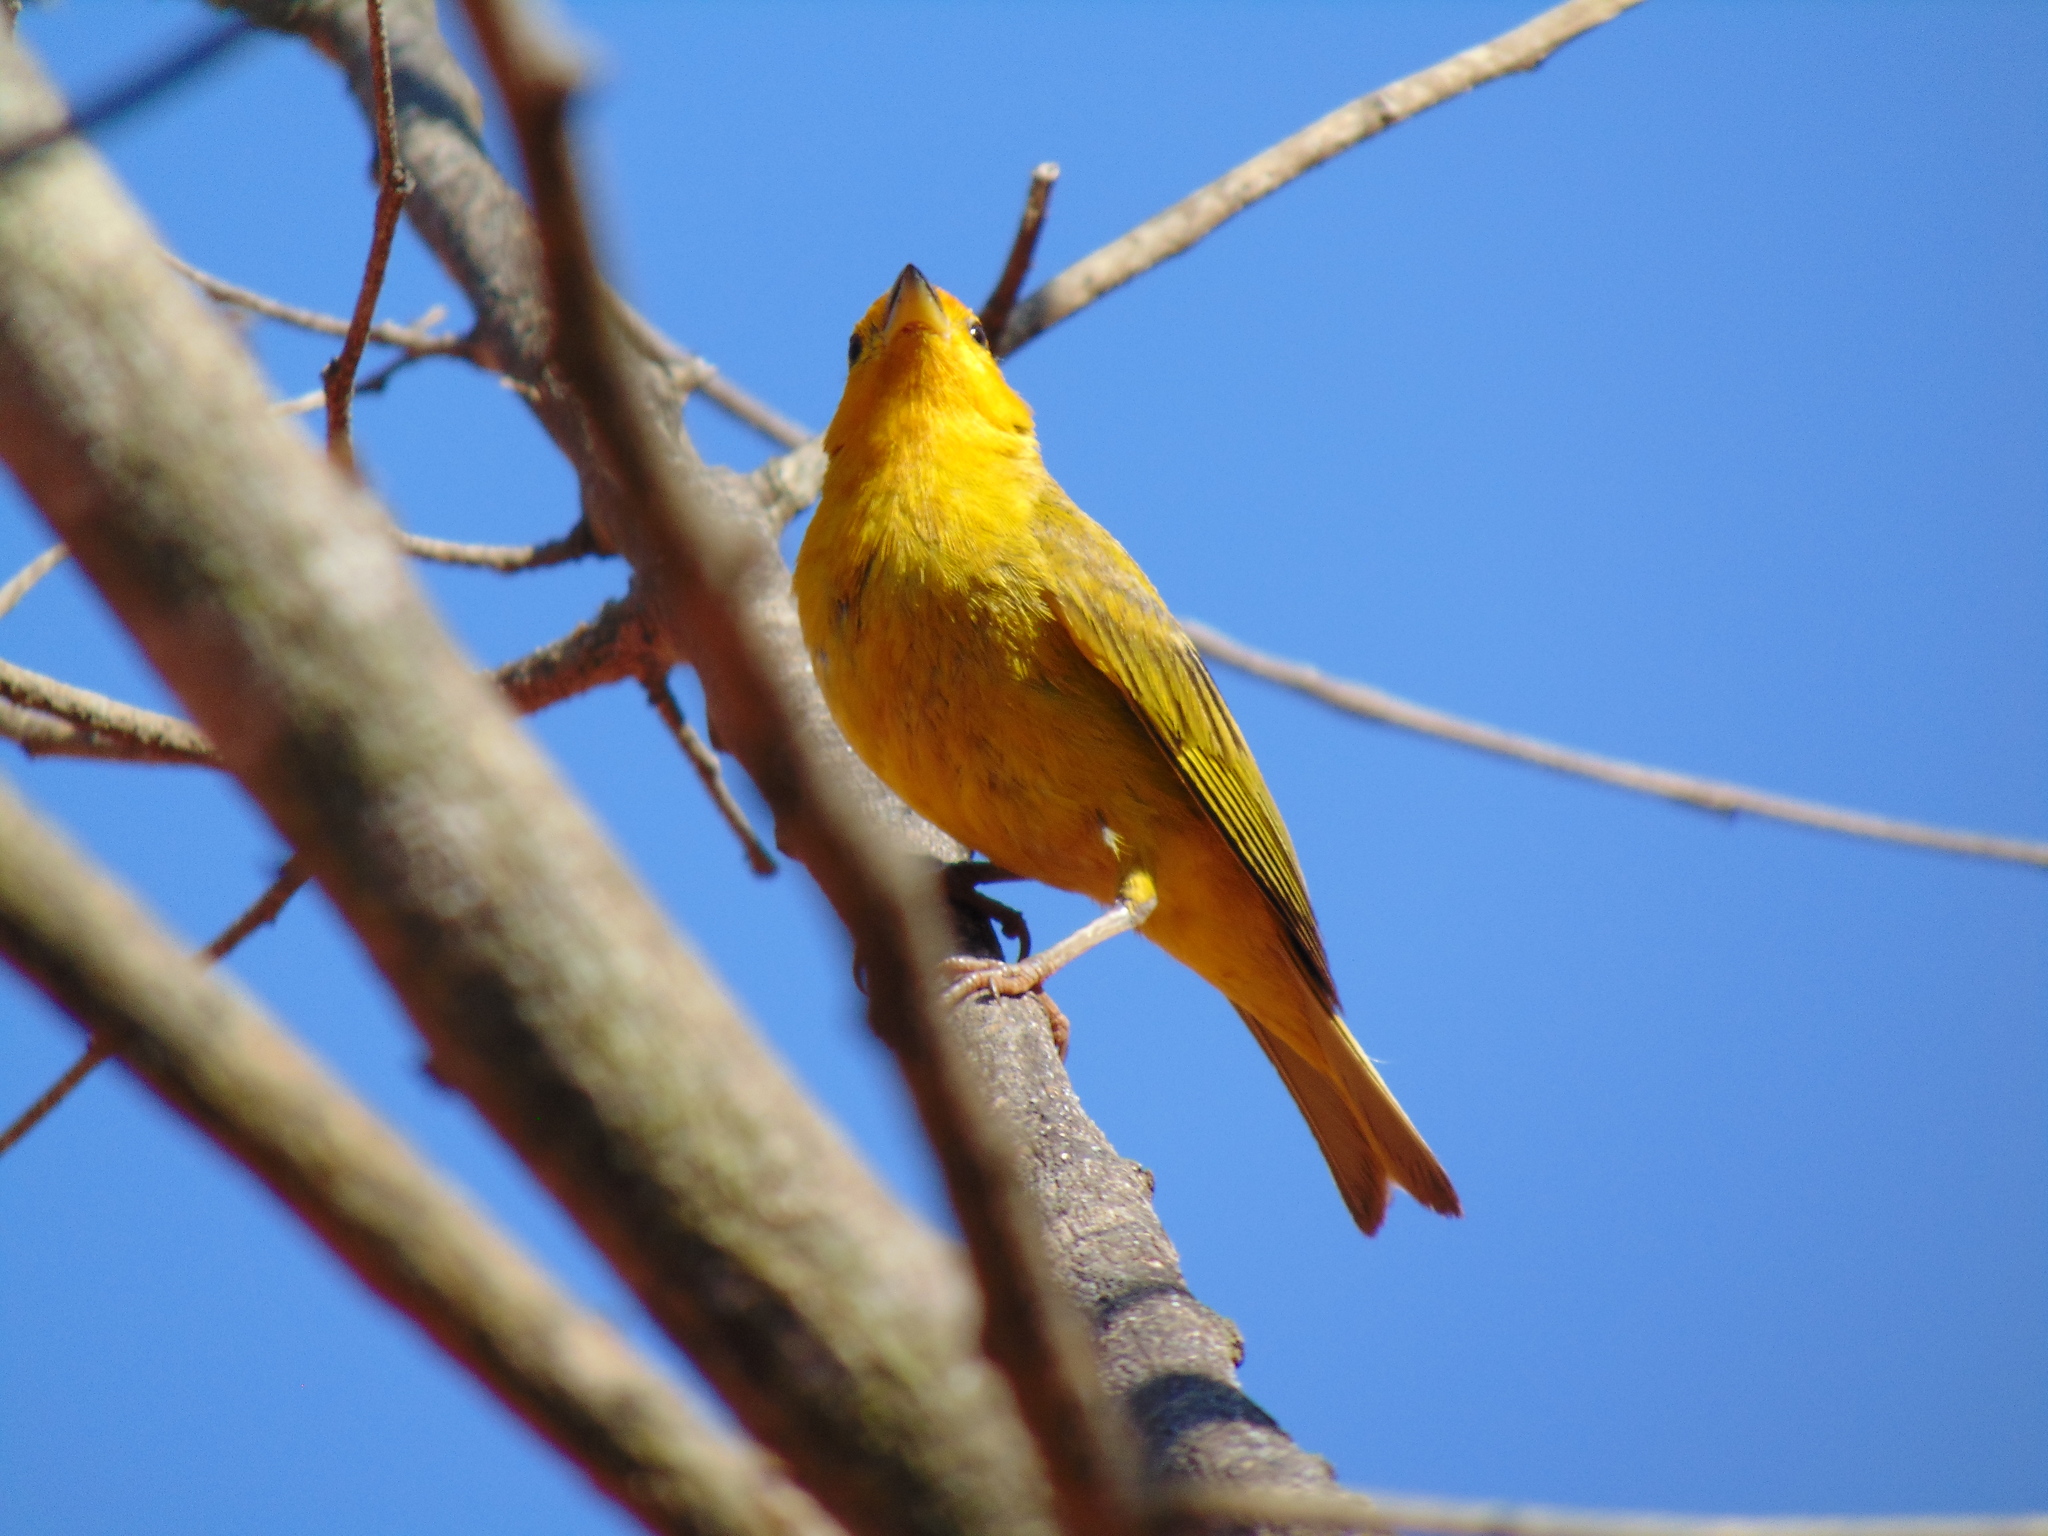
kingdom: Animalia
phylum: Chordata
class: Aves
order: Passeriformes
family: Thraupidae
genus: Sicalis
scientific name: Sicalis flaveola
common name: Saffron finch
